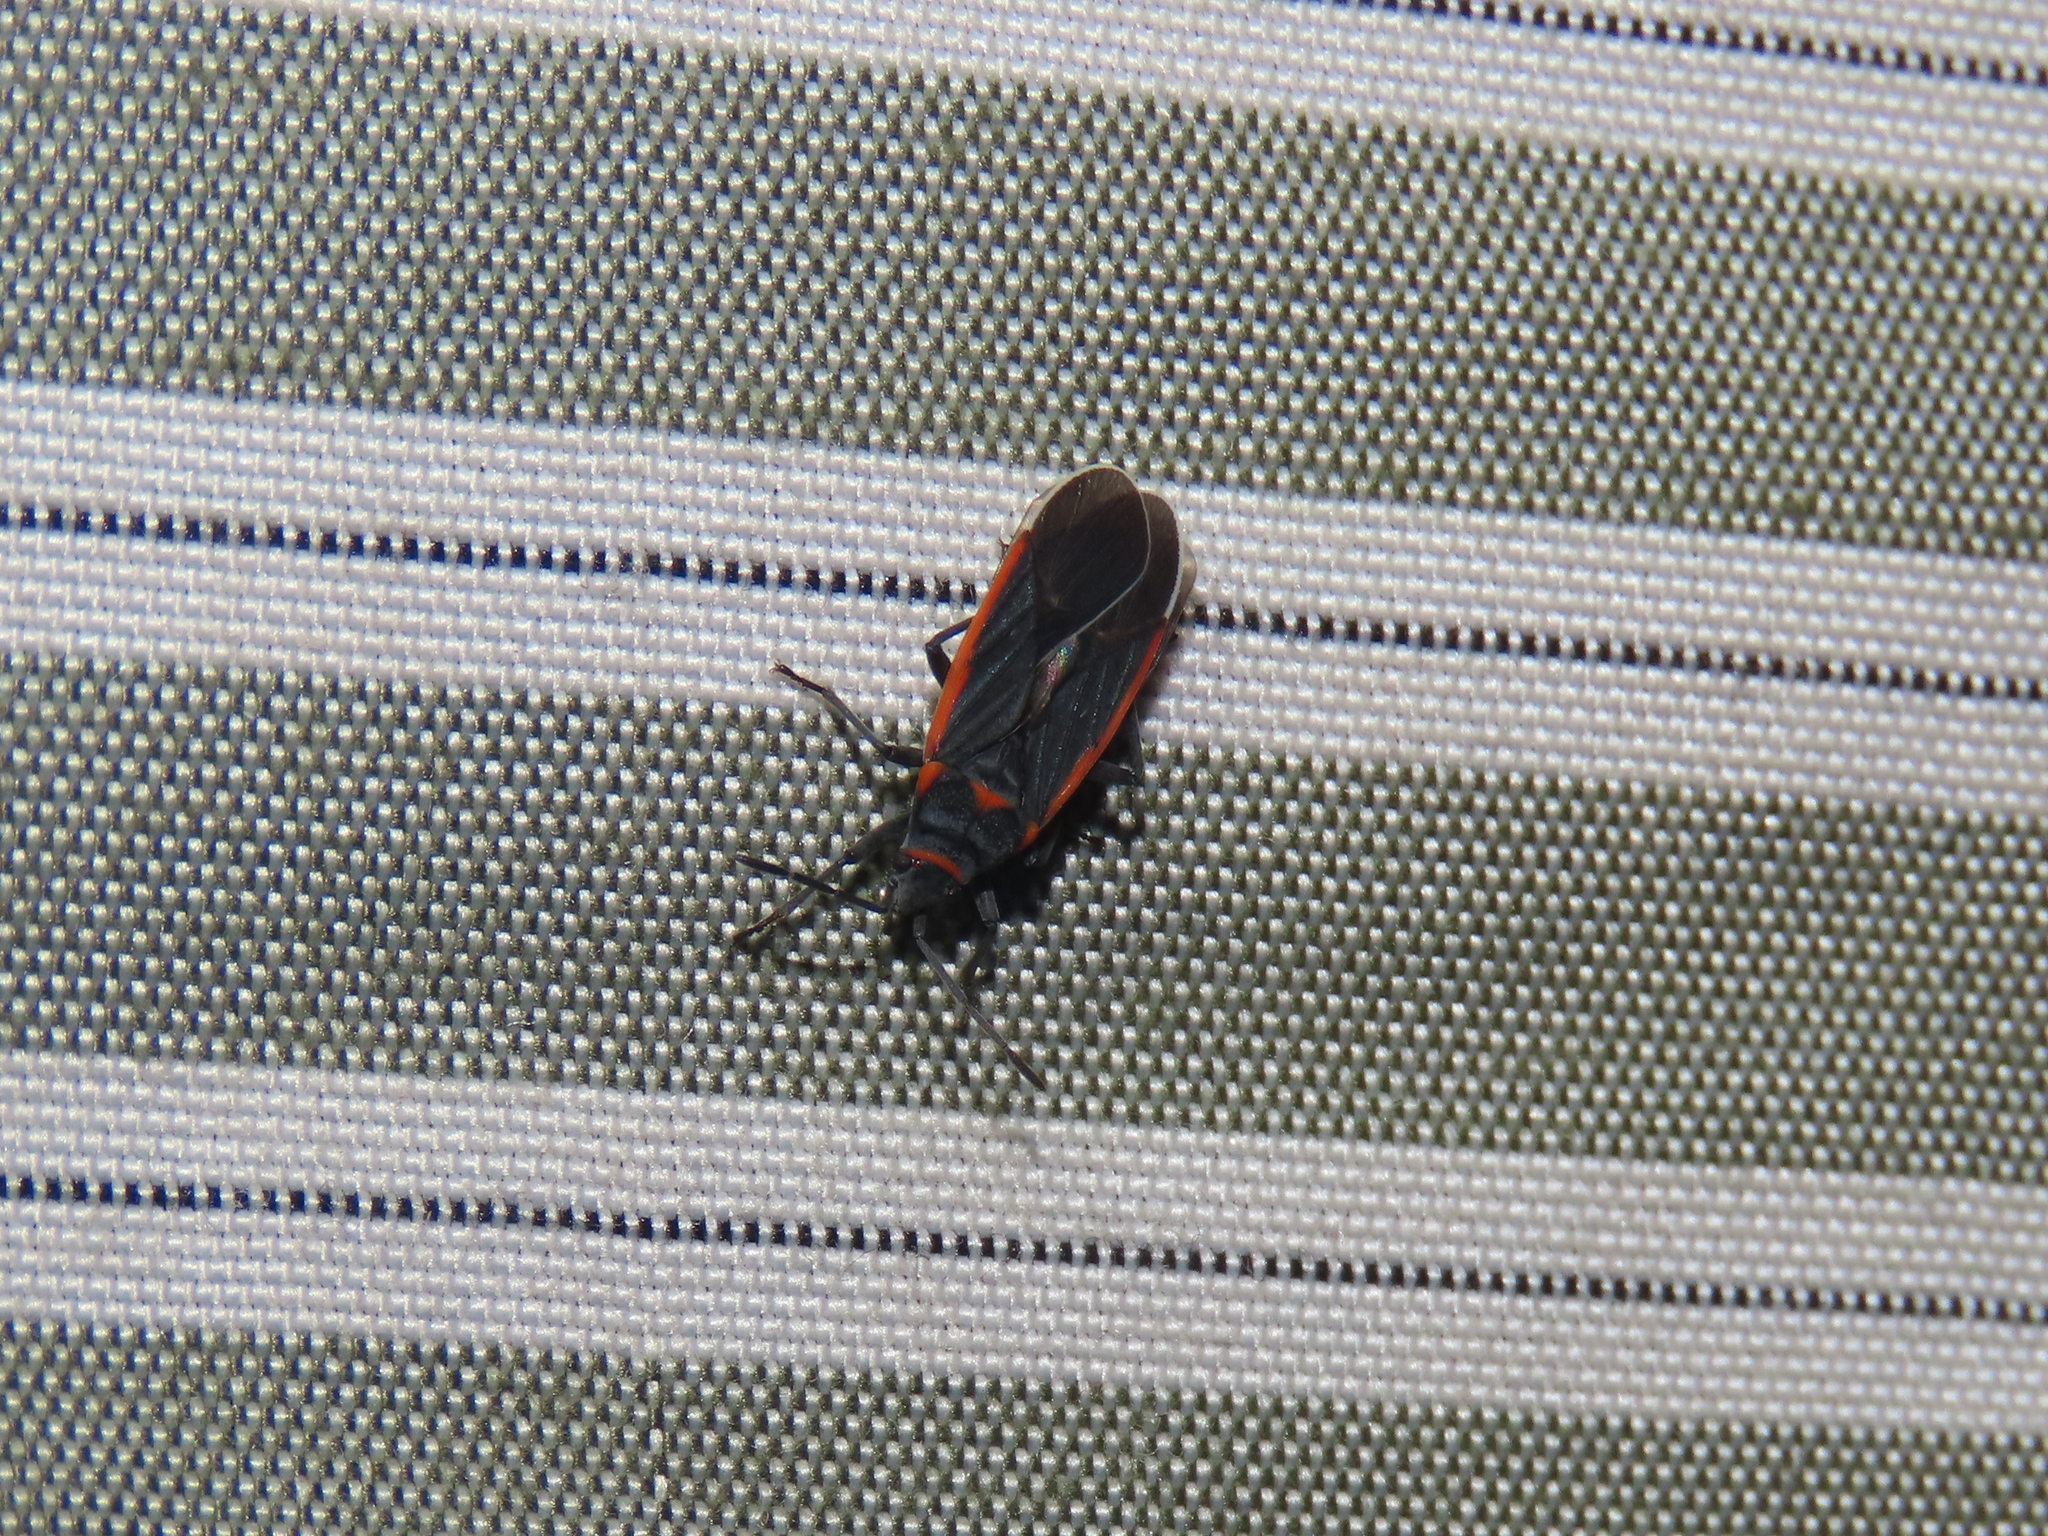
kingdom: Animalia
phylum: Arthropoda
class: Insecta
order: Hemiptera
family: Lygaeidae
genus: Melacoryphus
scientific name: Melacoryphus lateralis
